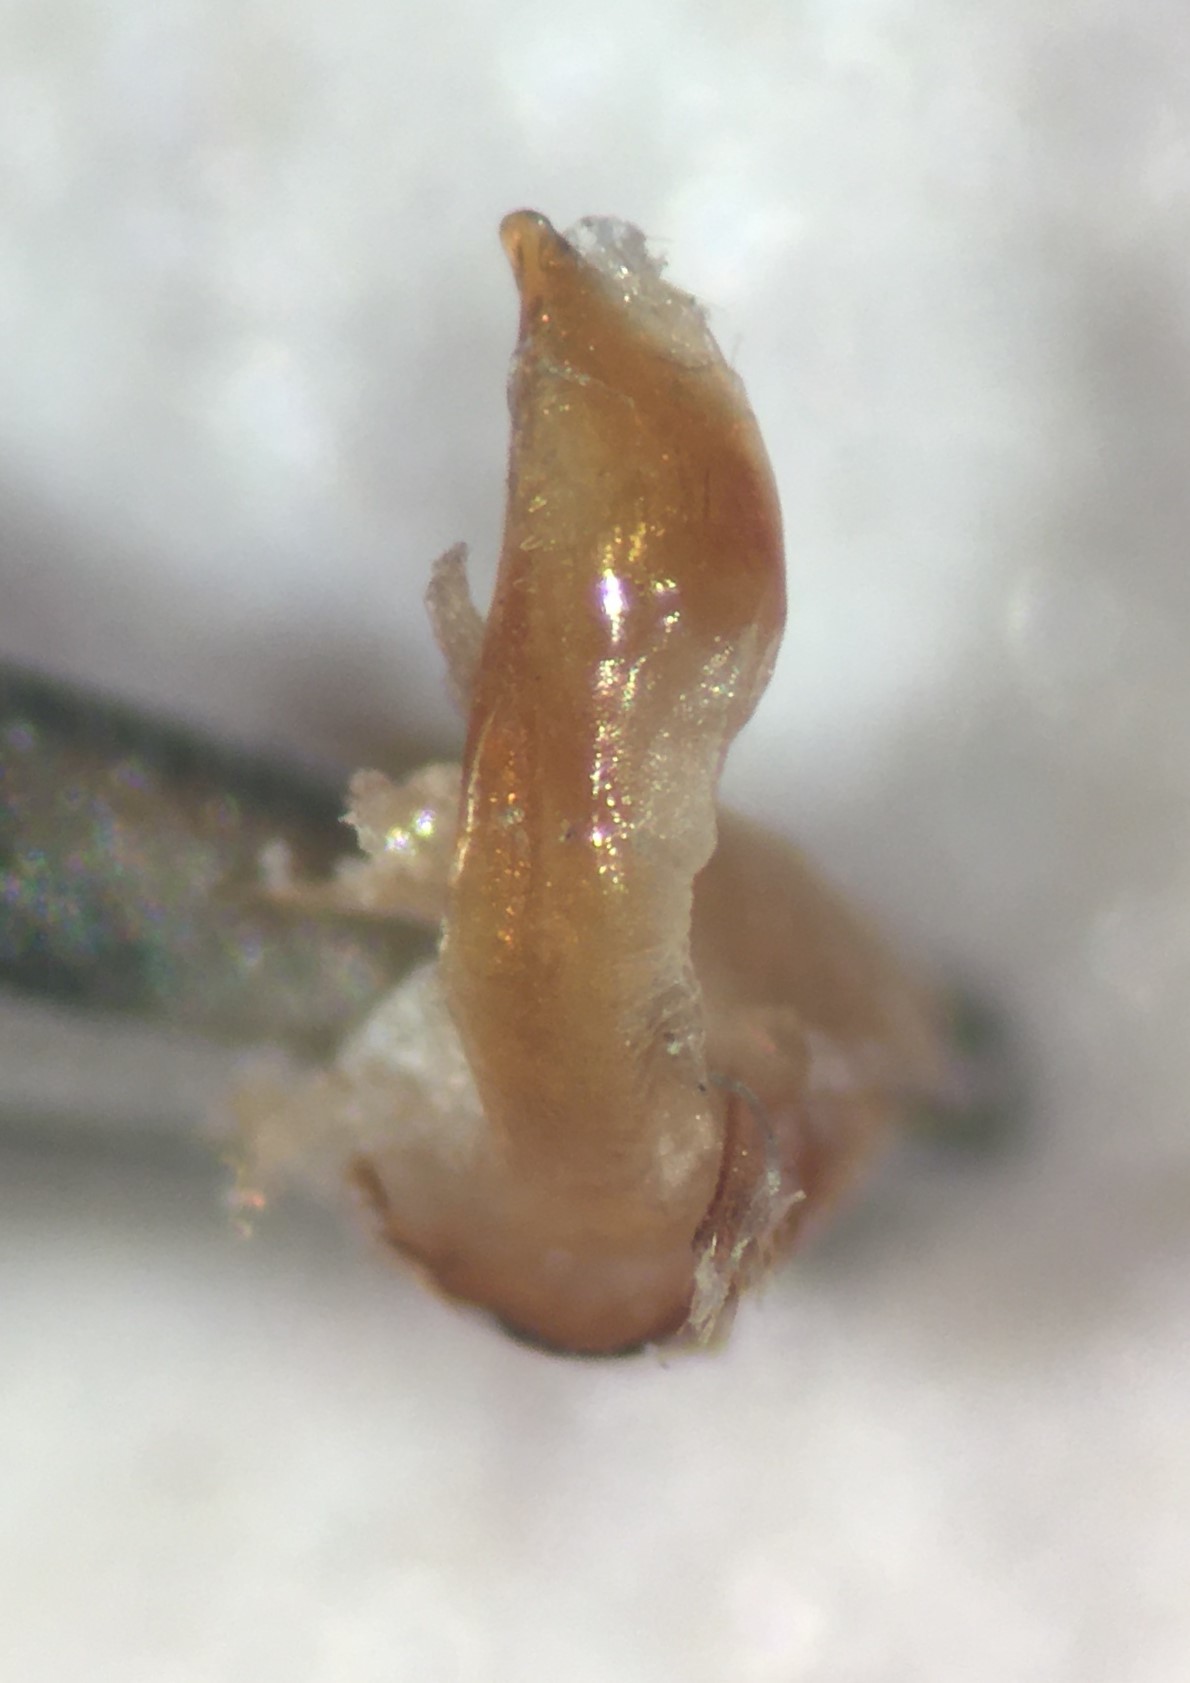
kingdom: Animalia
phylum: Arthropoda
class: Insecta
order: Hemiptera
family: Naucoridae
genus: Pelocoris
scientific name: Pelocoris femoratus
